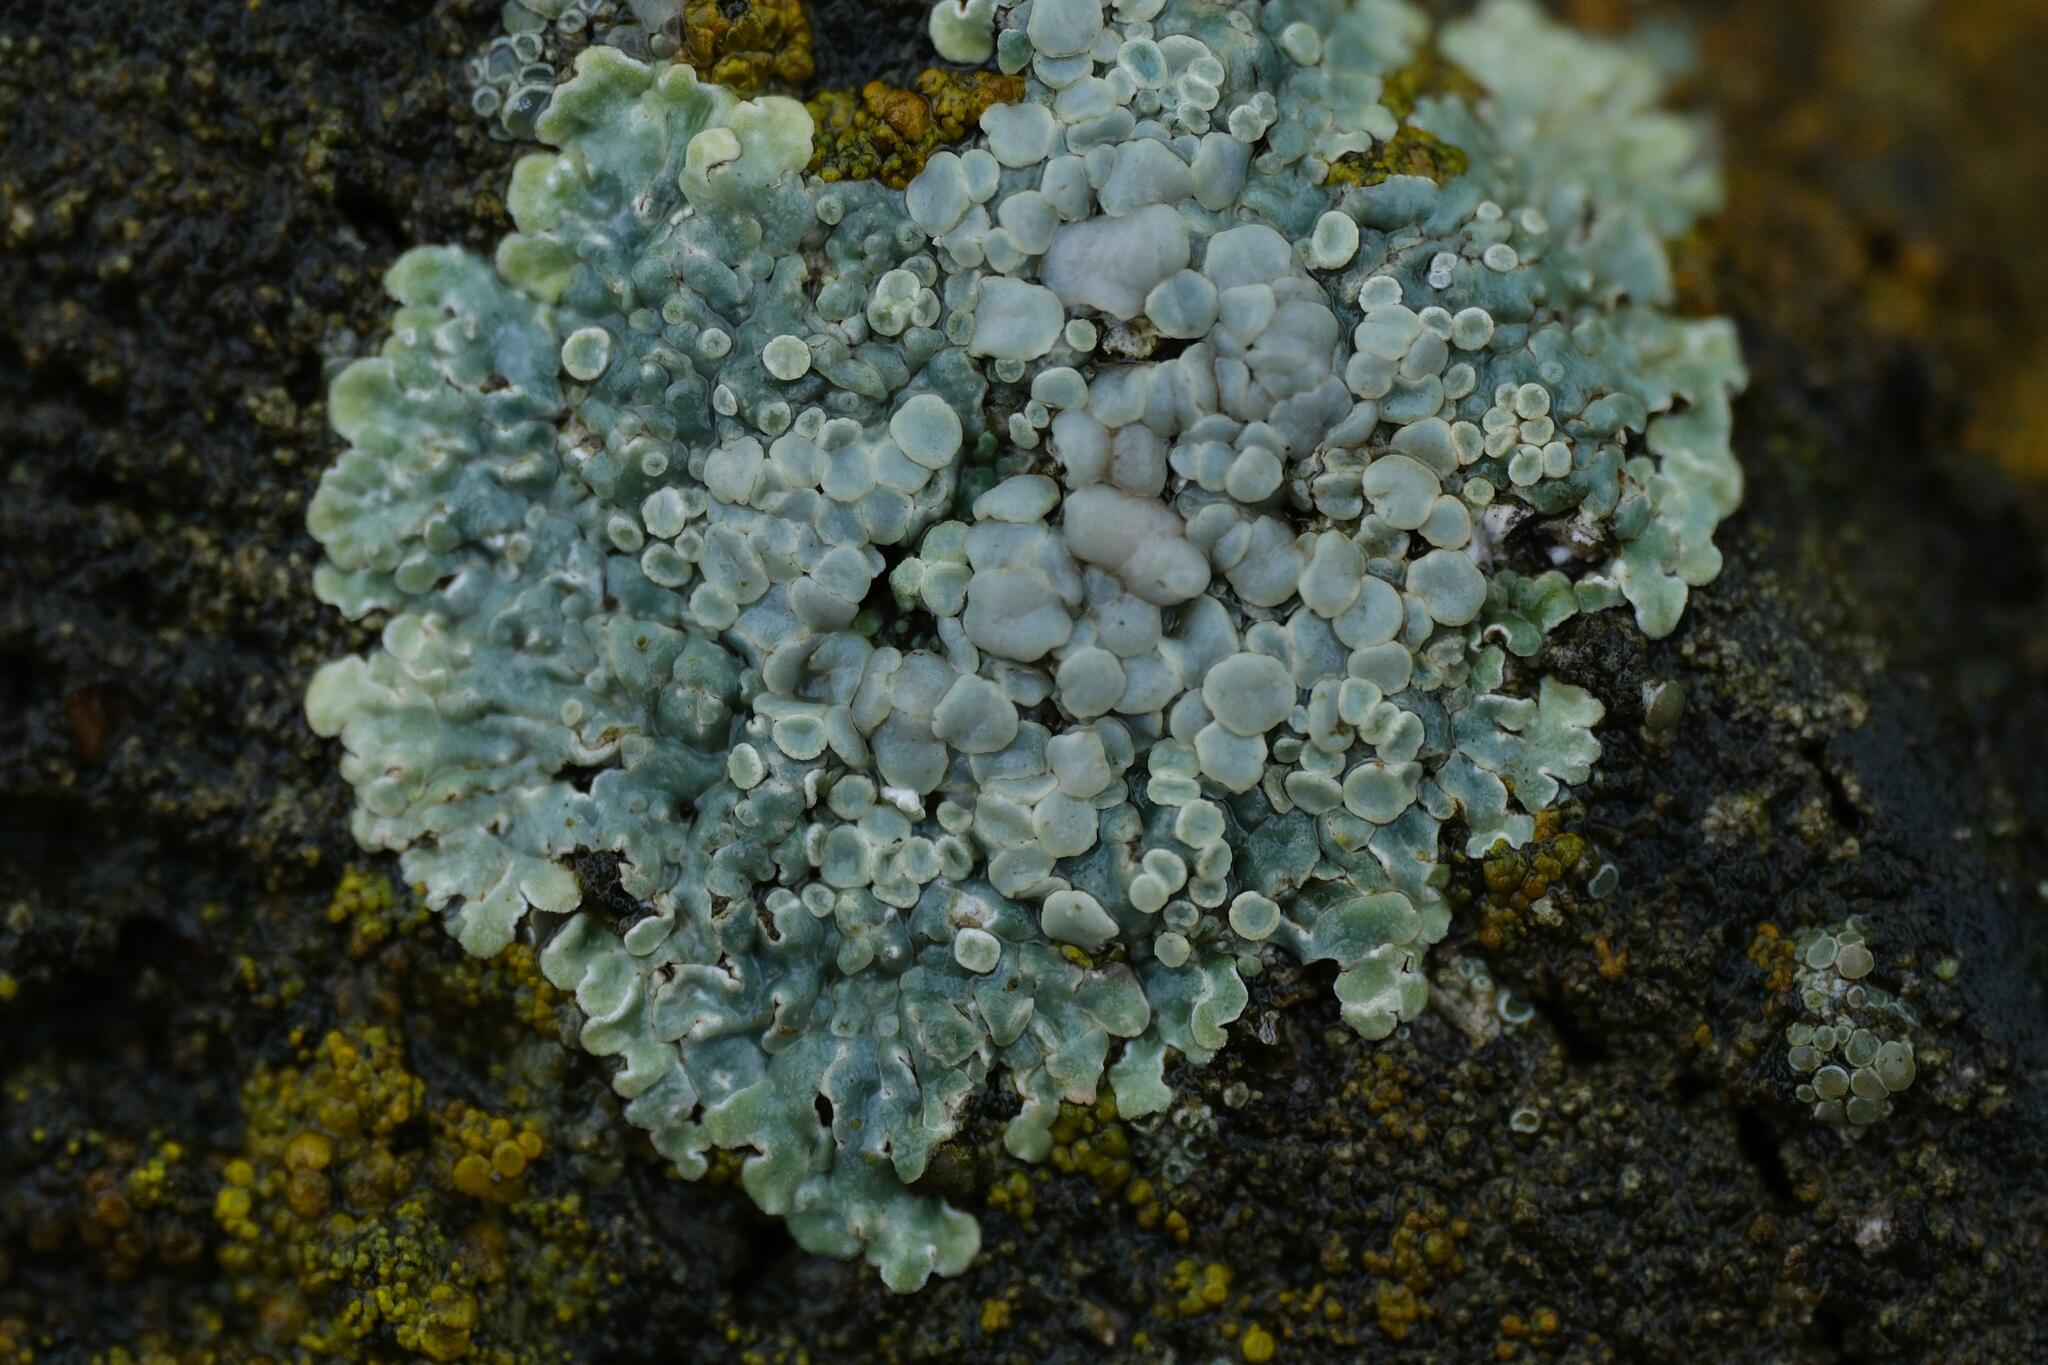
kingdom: Fungi
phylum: Ascomycota
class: Lecanoromycetes
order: Lecanorales
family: Lecanoraceae
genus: Protoparmeliopsis
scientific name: Protoparmeliopsis muralis
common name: Stonewall rim lichen
